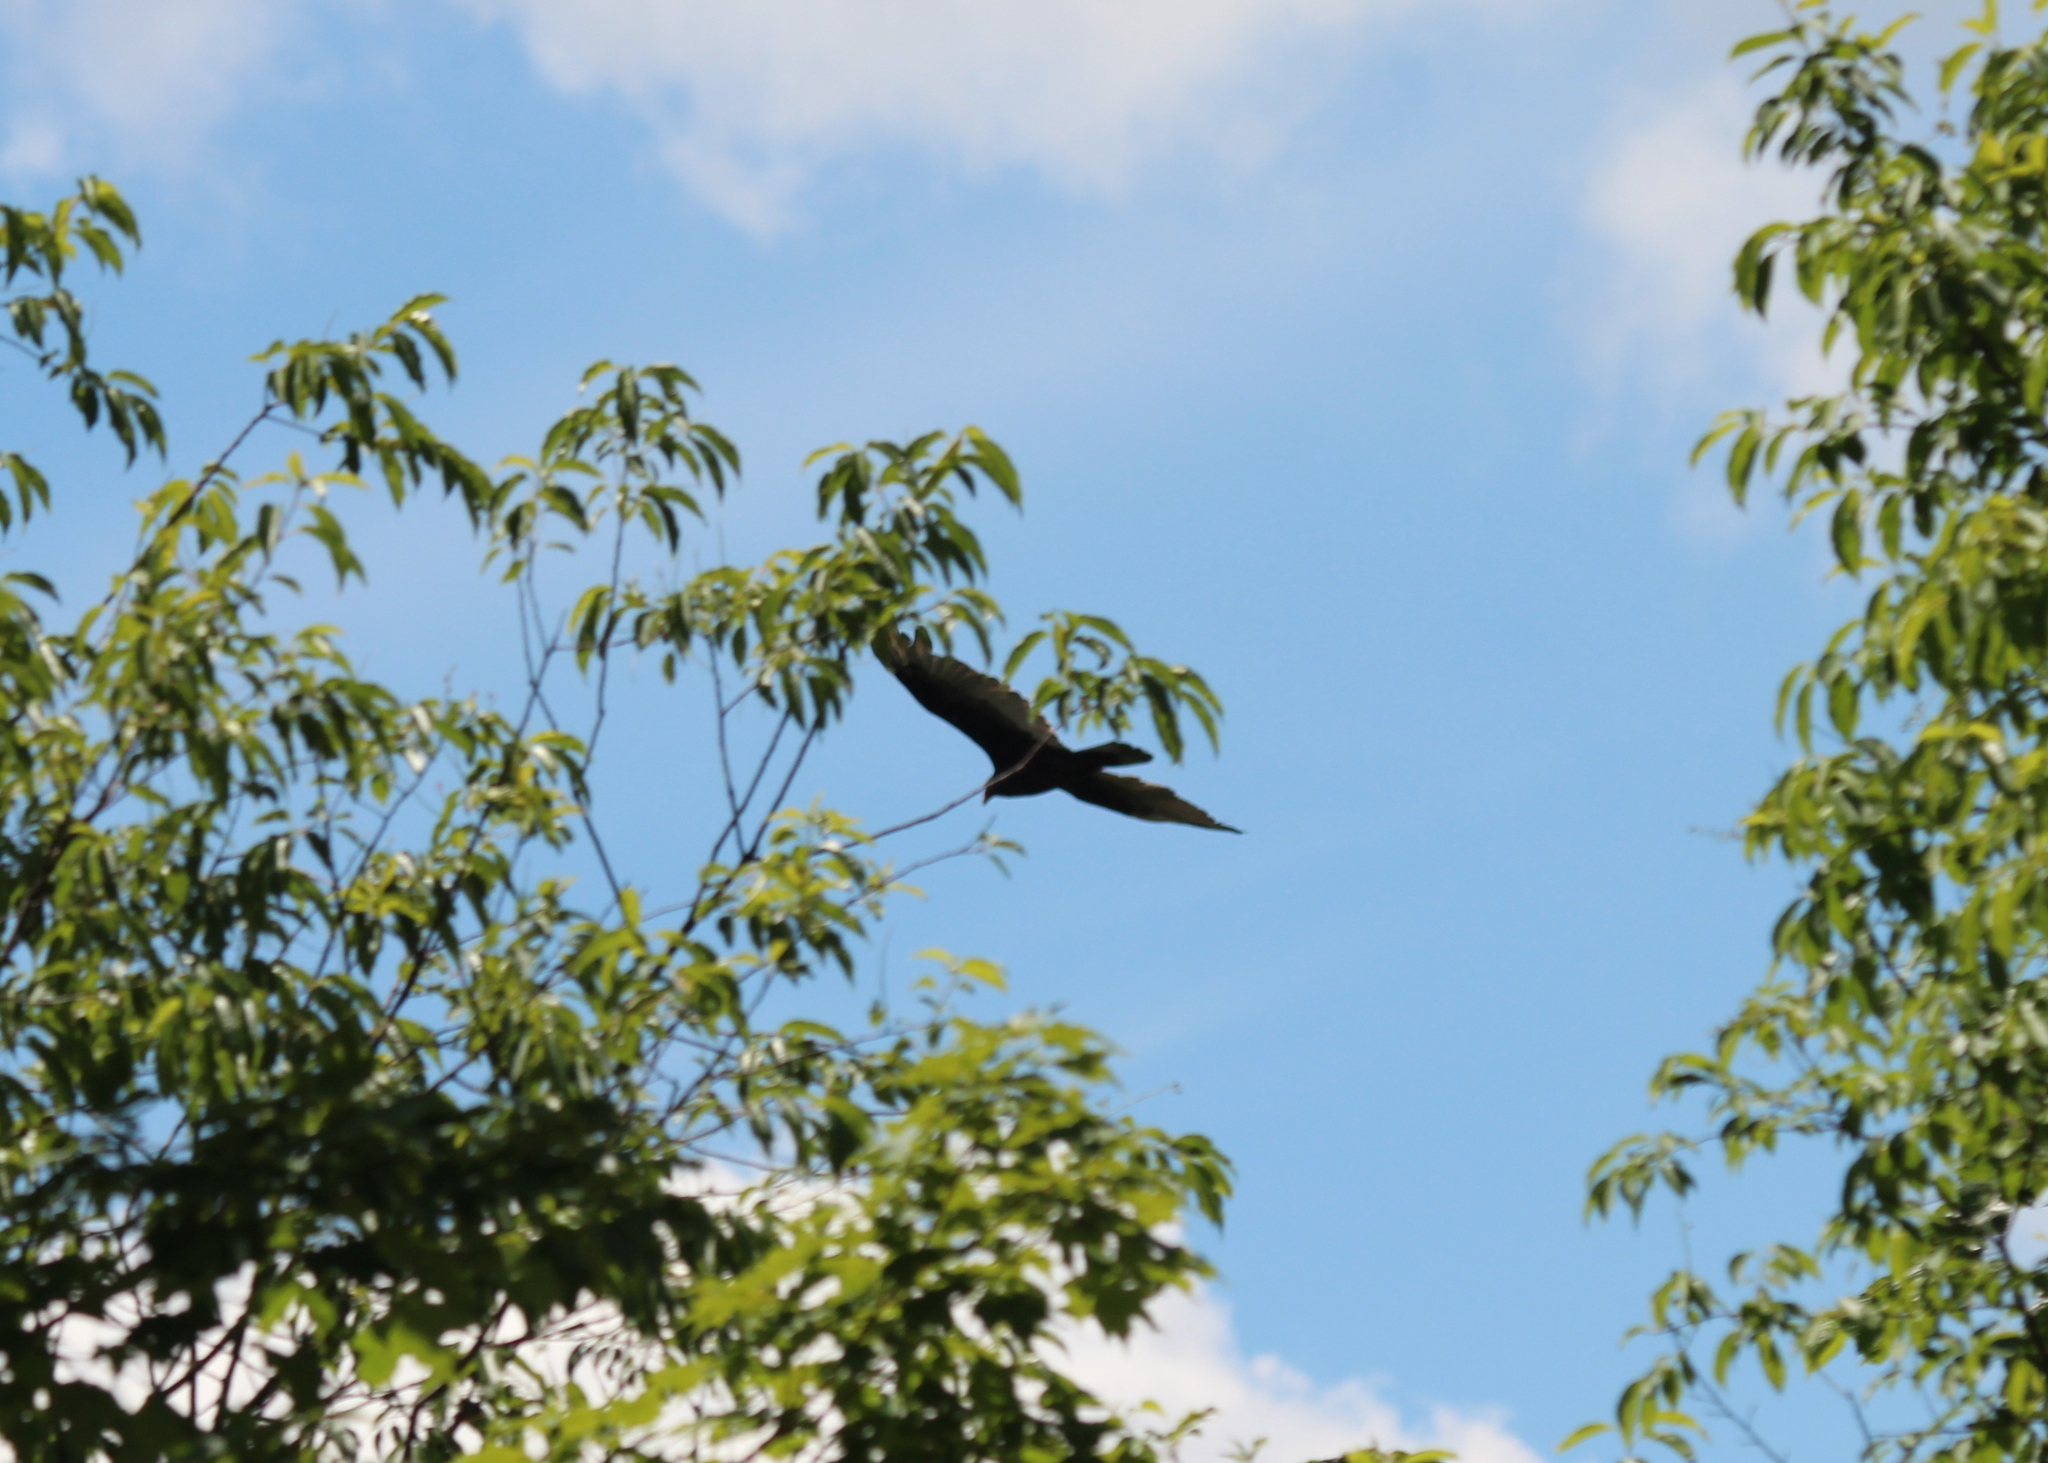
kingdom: Animalia
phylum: Chordata
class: Aves
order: Accipitriformes
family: Cathartidae
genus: Cathartes
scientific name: Cathartes aura
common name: Turkey vulture
